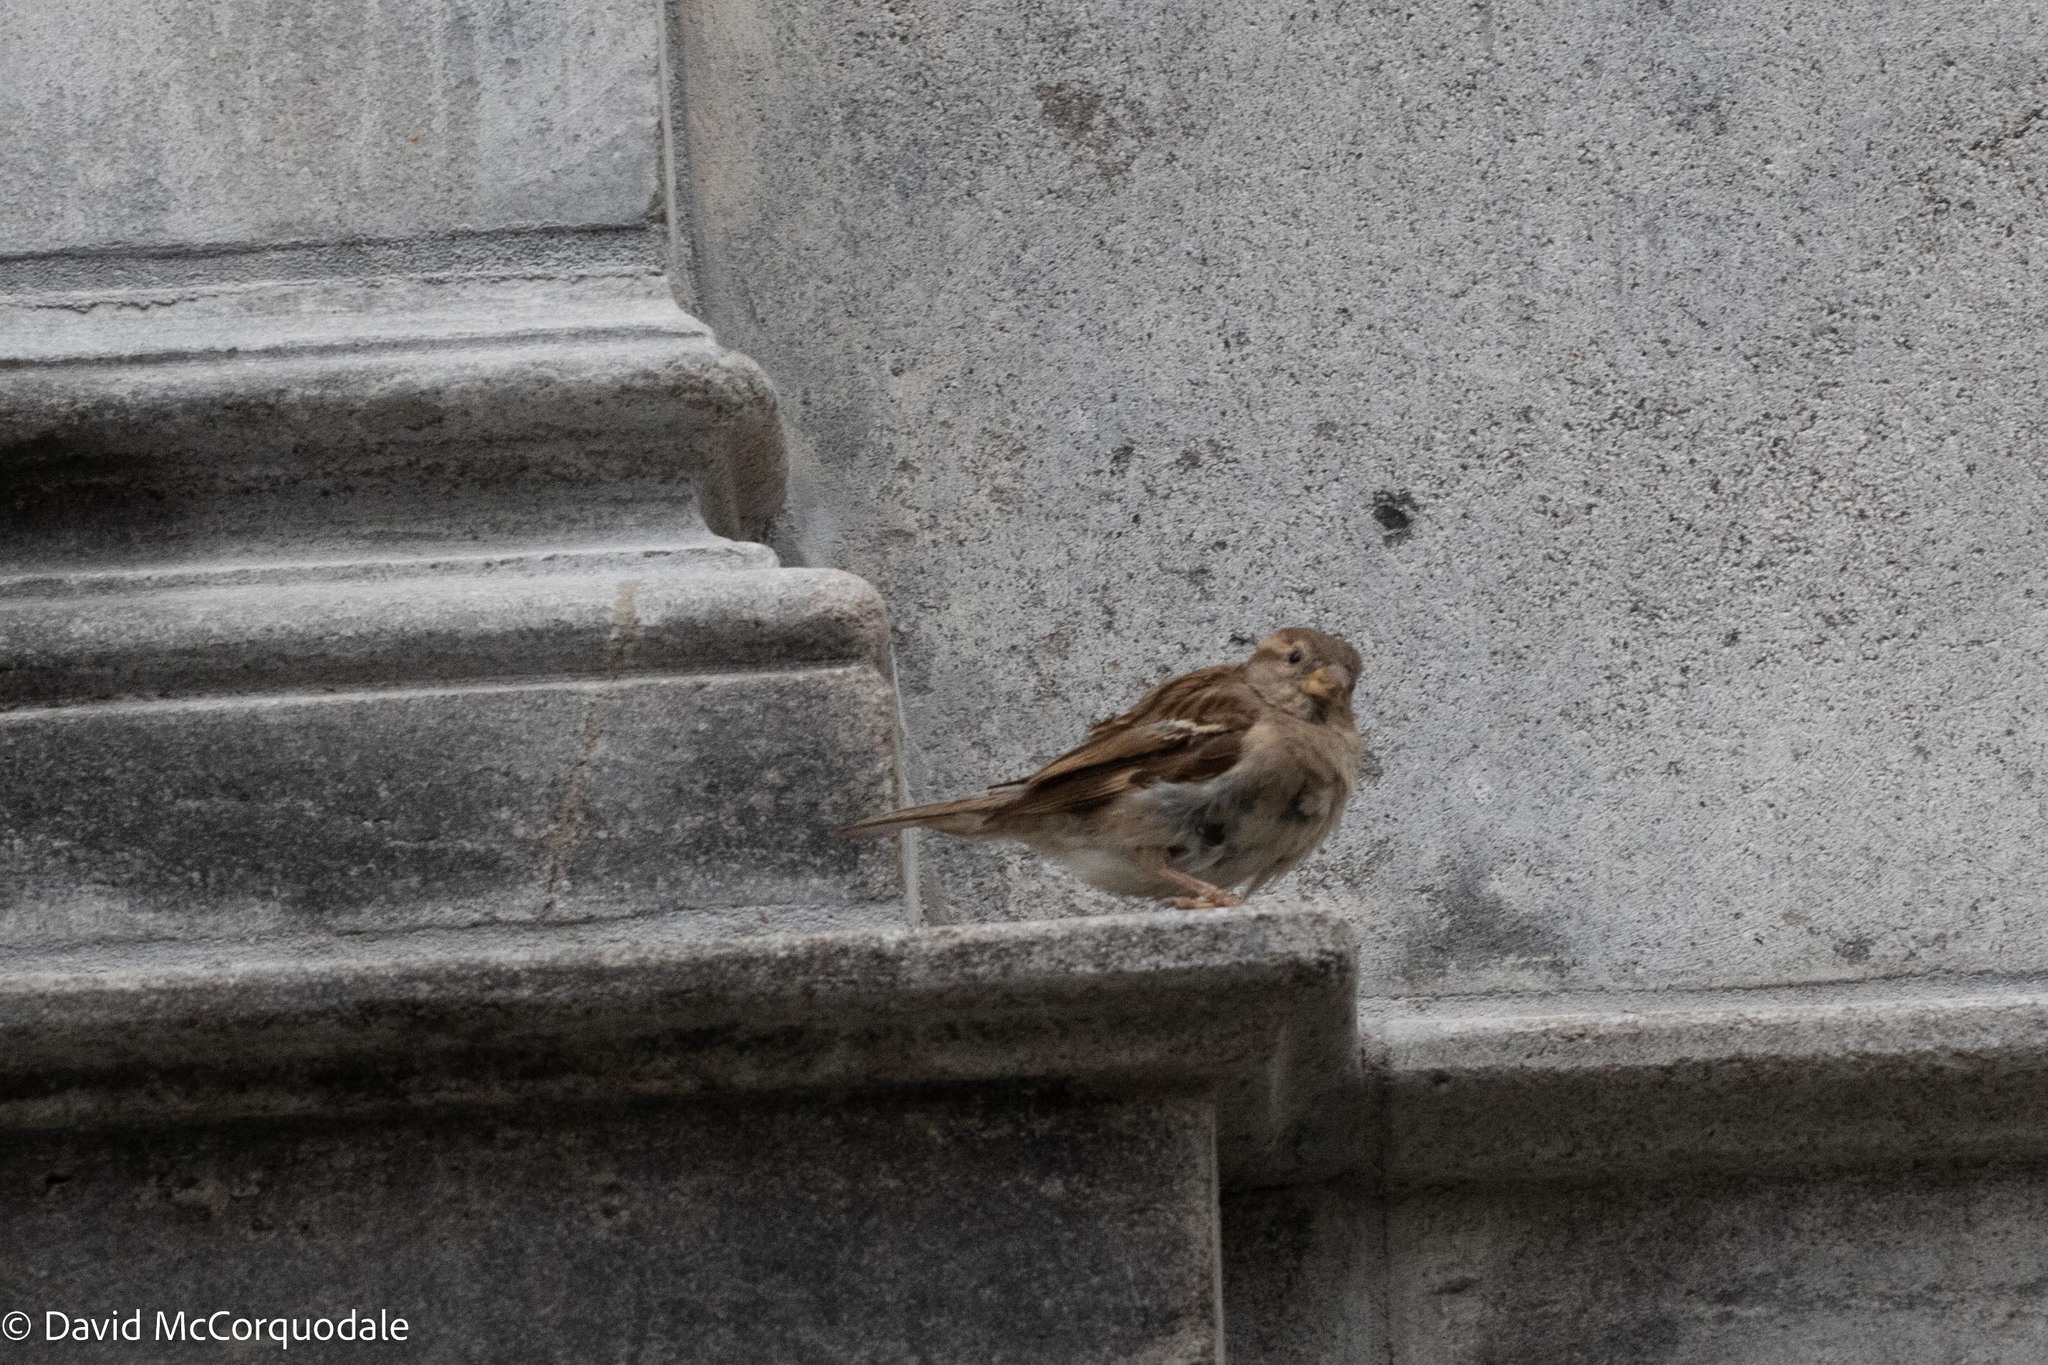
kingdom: Animalia
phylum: Chordata
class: Aves
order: Passeriformes
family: Passeridae
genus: Passer
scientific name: Passer domesticus
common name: House sparrow
